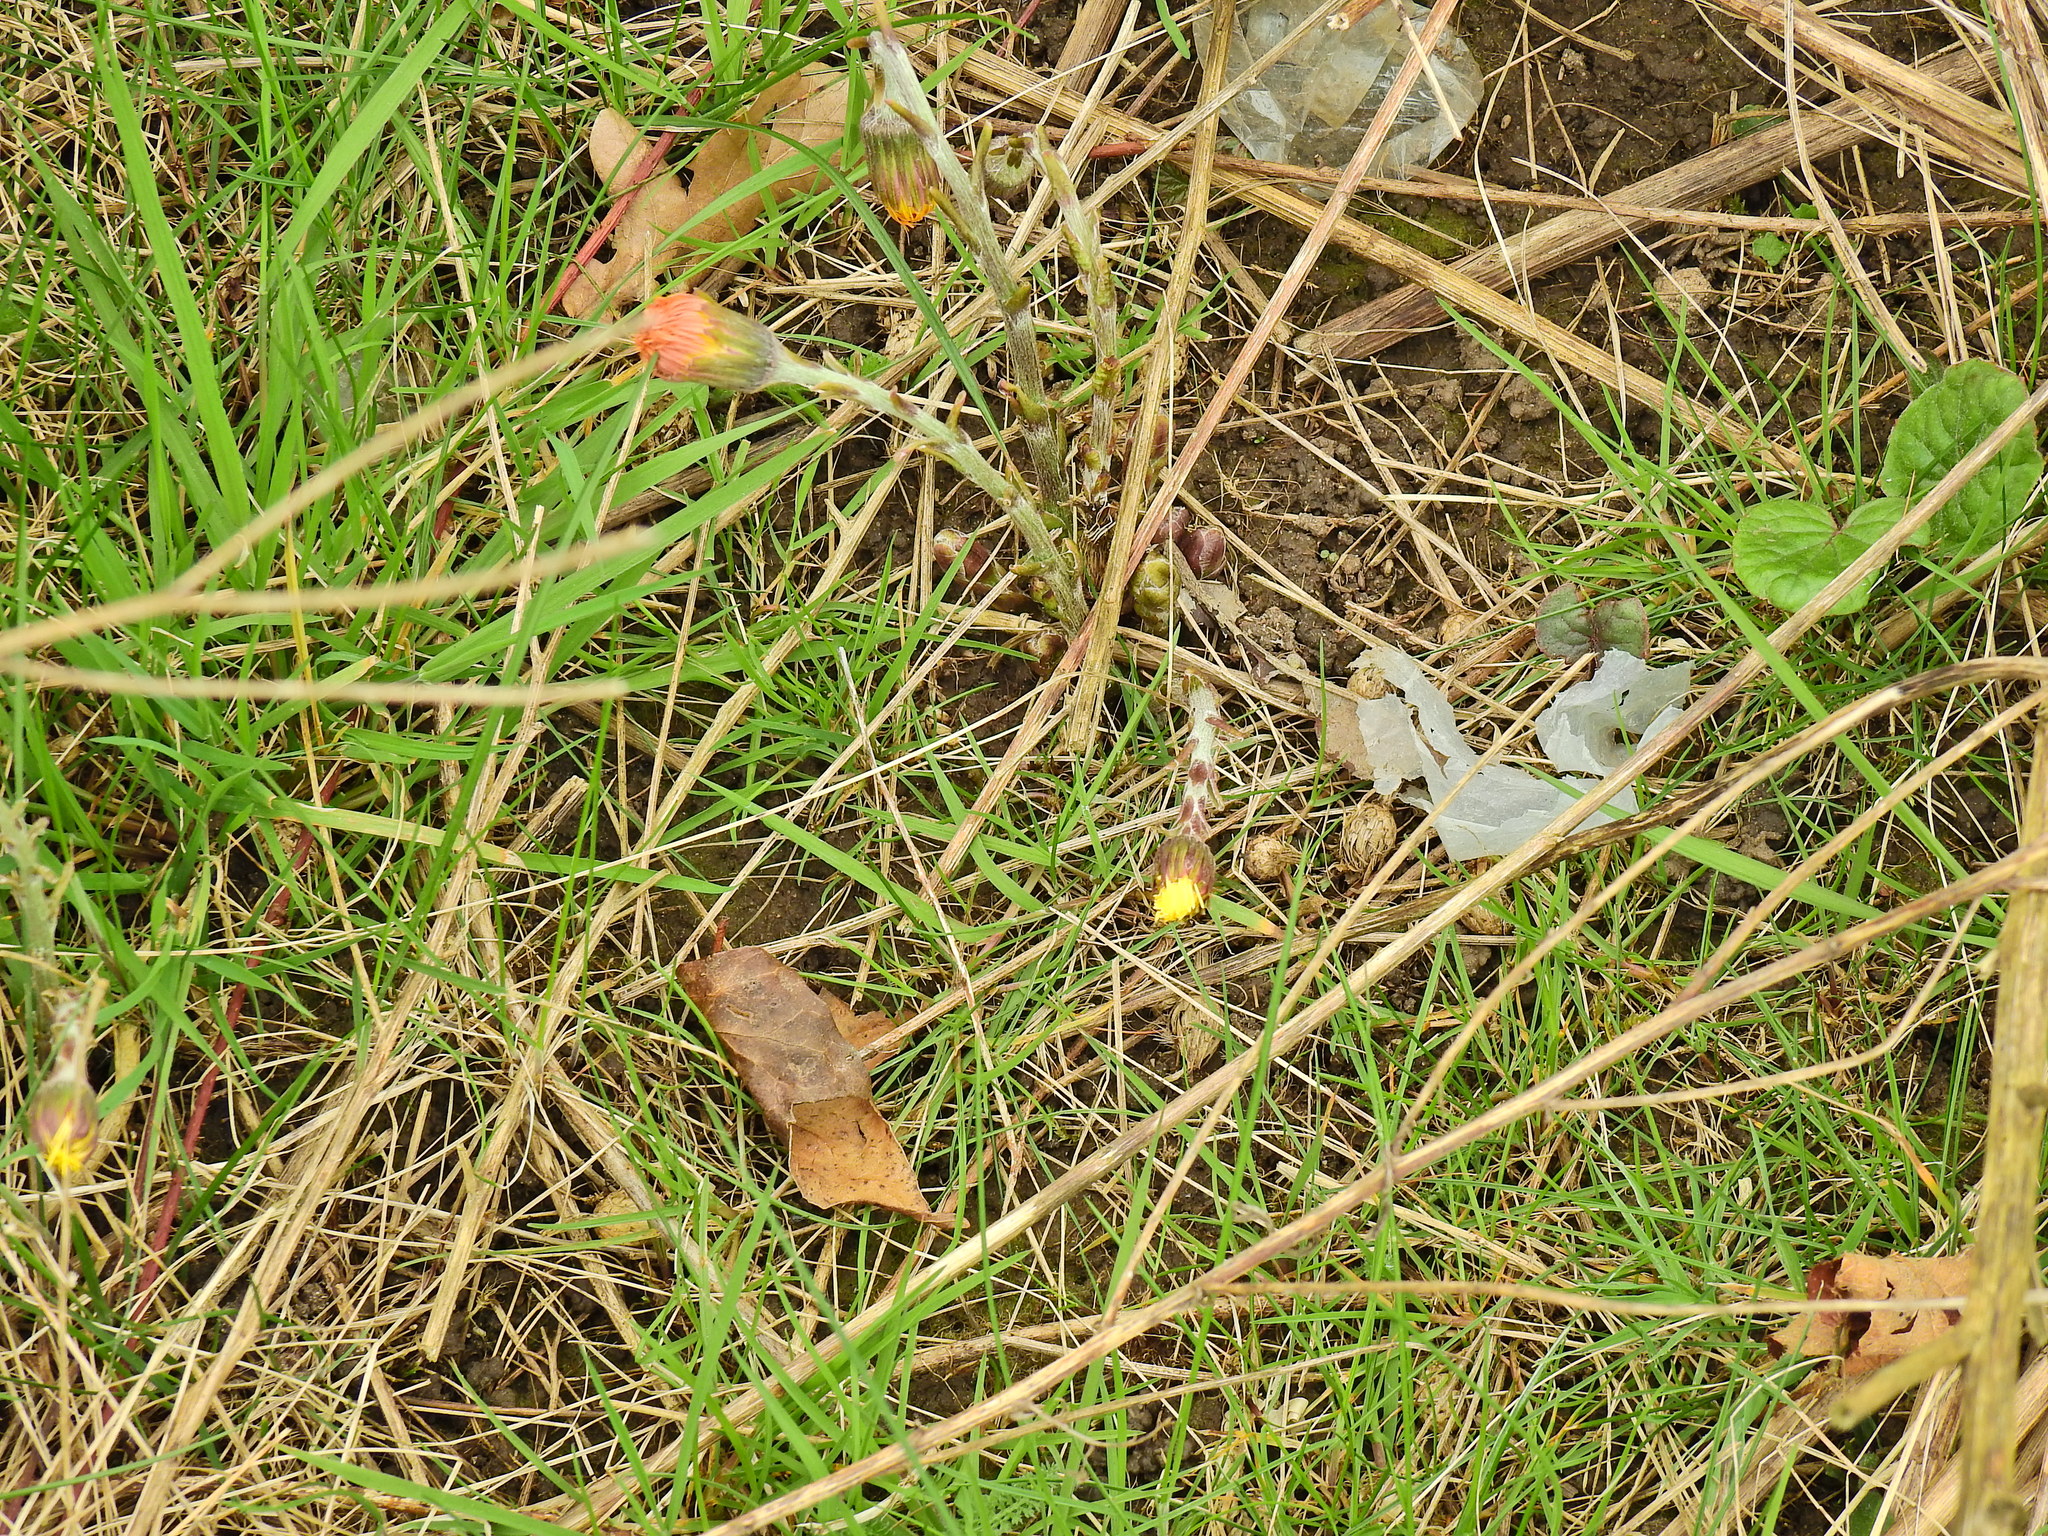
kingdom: Plantae
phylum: Tracheophyta
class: Magnoliopsida
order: Asterales
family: Asteraceae
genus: Tussilago
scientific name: Tussilago farfara
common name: Coltsfoot
